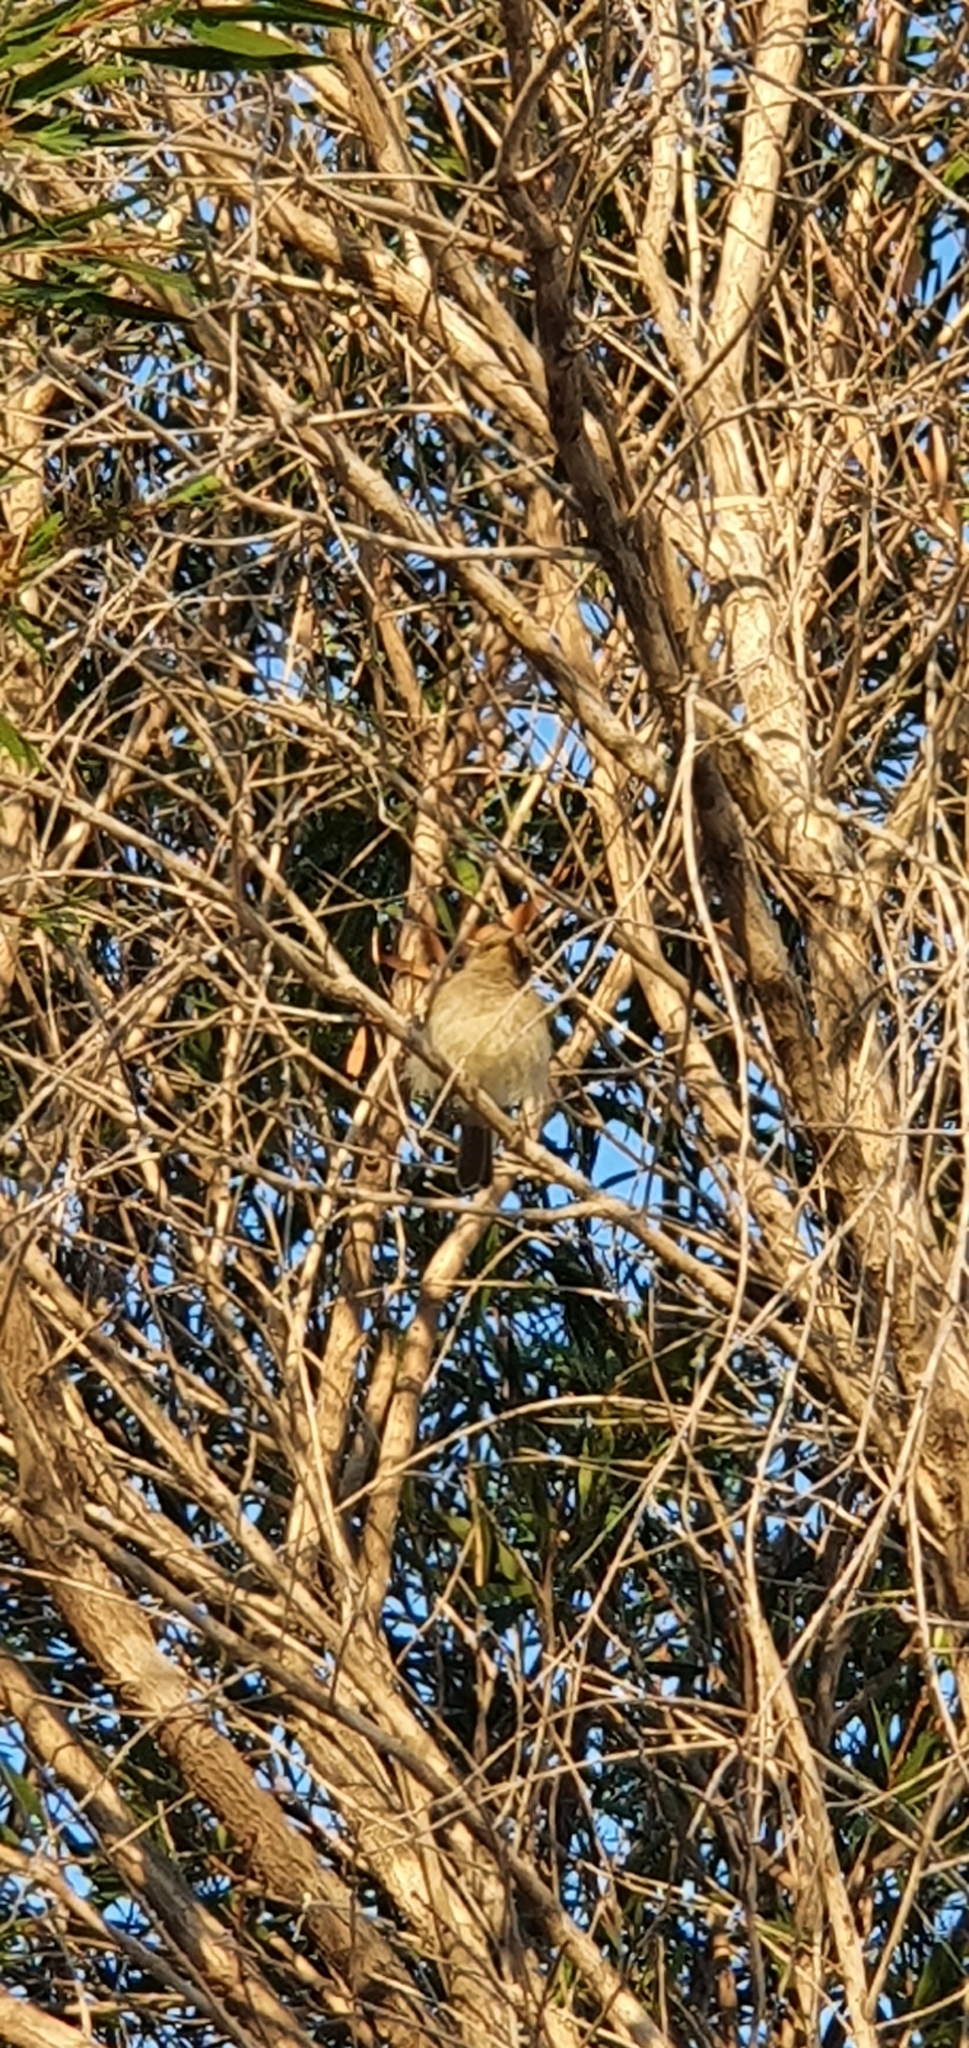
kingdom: Animalia
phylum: Chordata
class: Aves
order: Passeriformes
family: Meliphagidae
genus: Lichmera
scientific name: Lichmera indistincta
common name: Brown honeyeater
